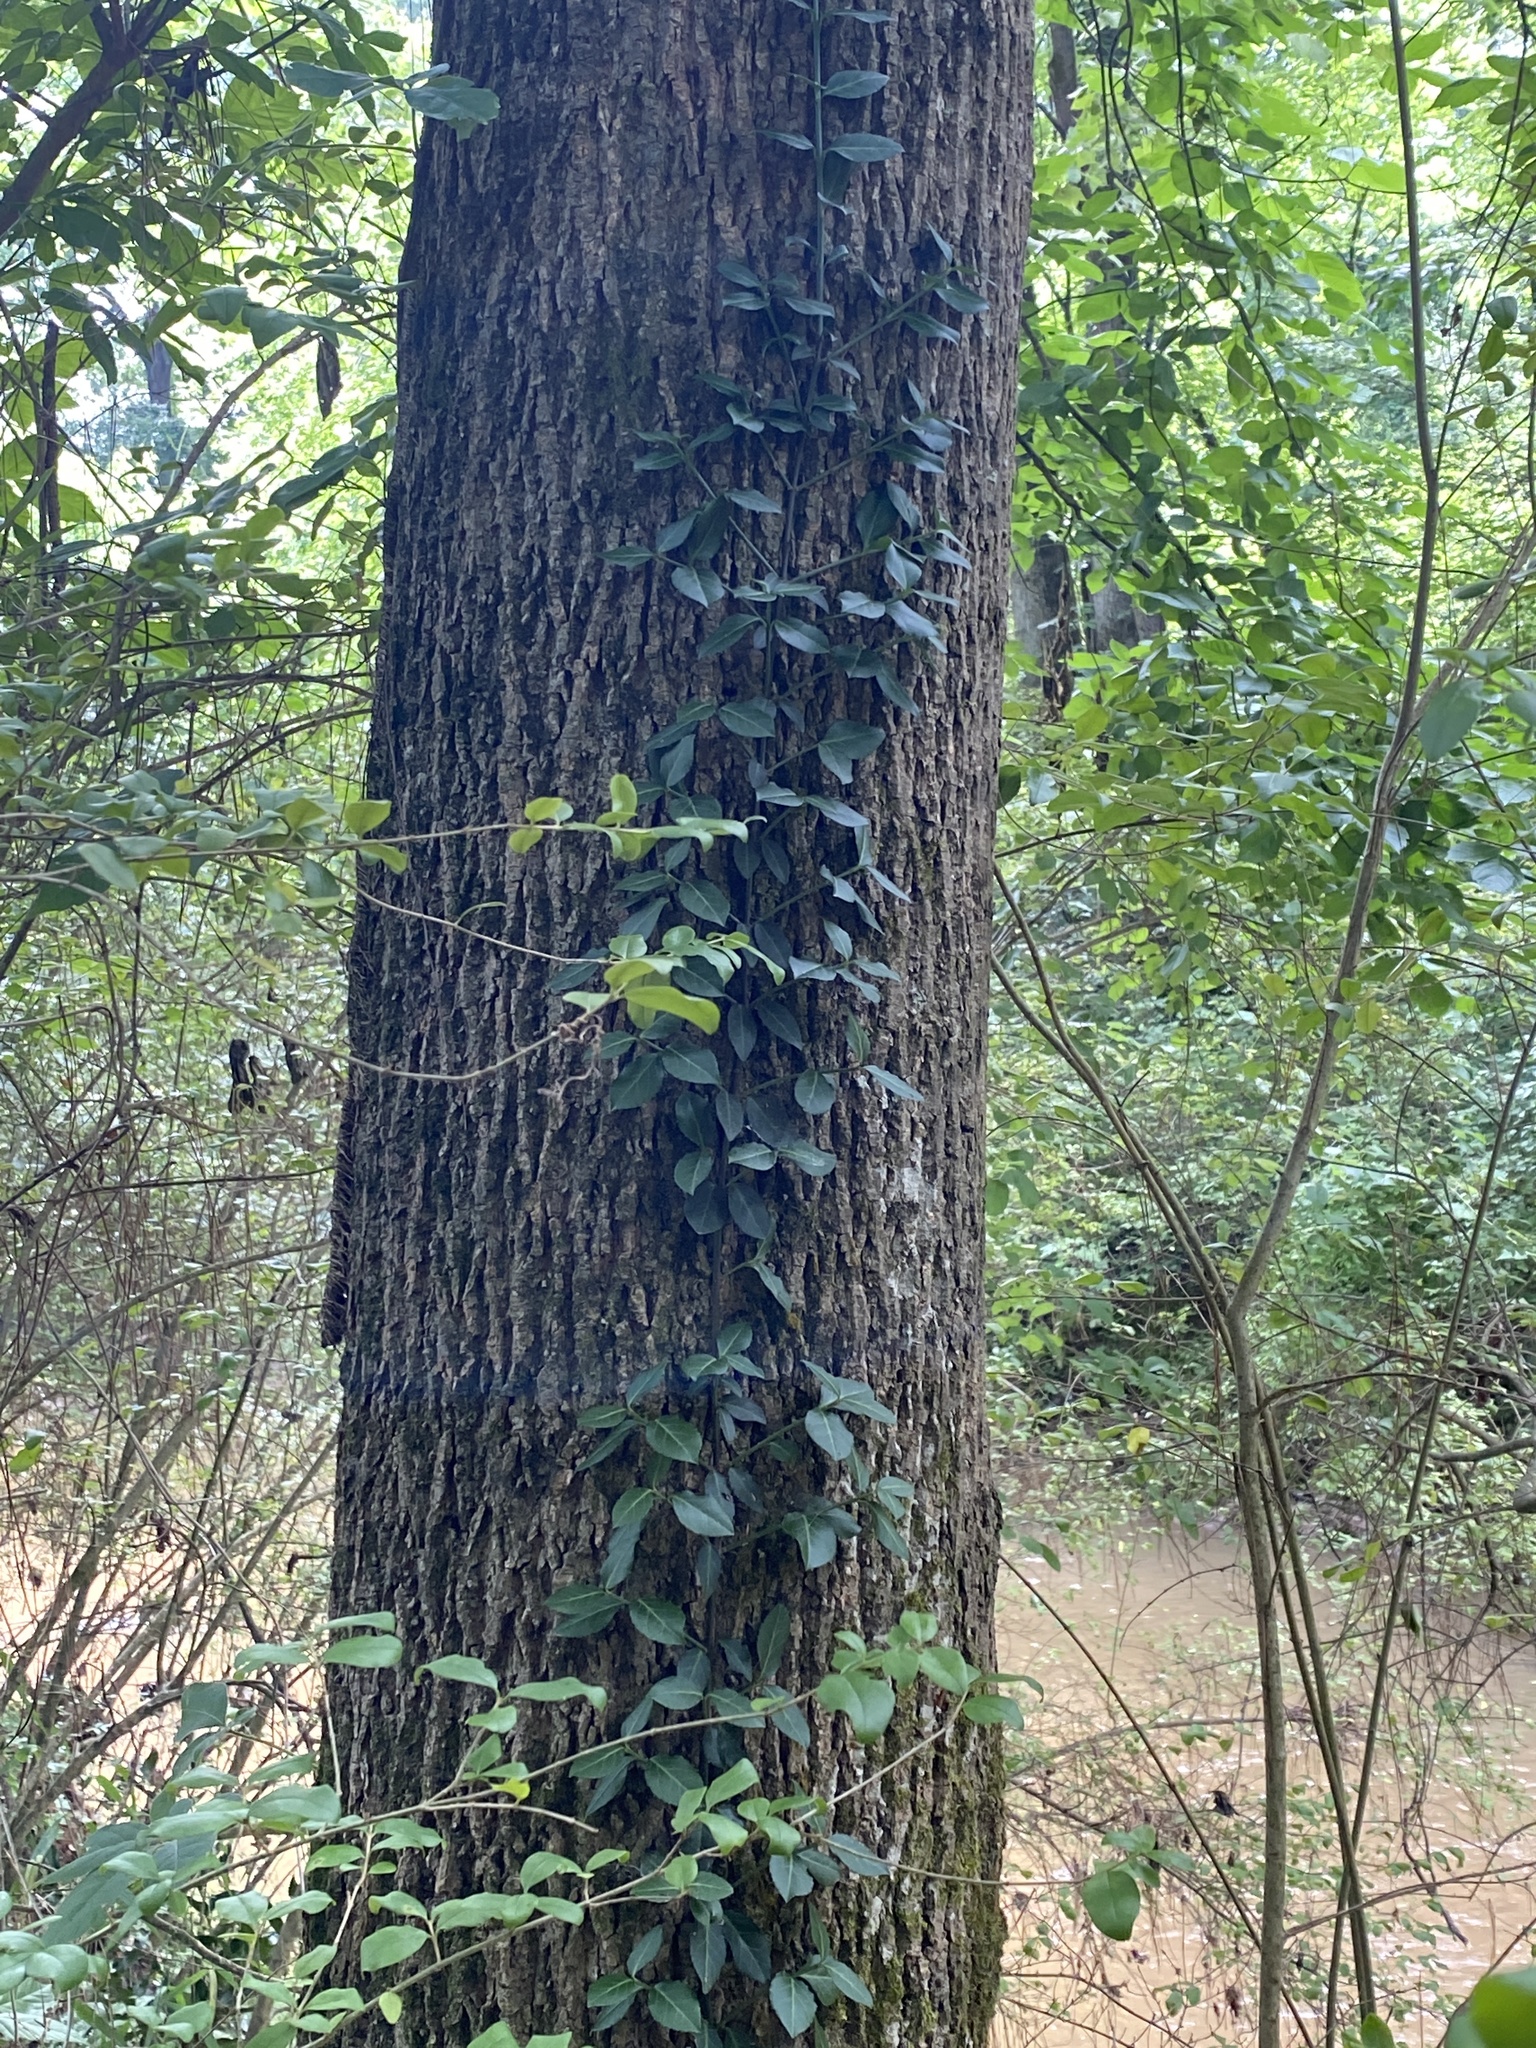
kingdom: Plantae
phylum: Tracheophyta
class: Magnoliopsida
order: Celastrales
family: Celastraceae
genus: Euonymus
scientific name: Euonymus fortunei
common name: Climbing euonymus
